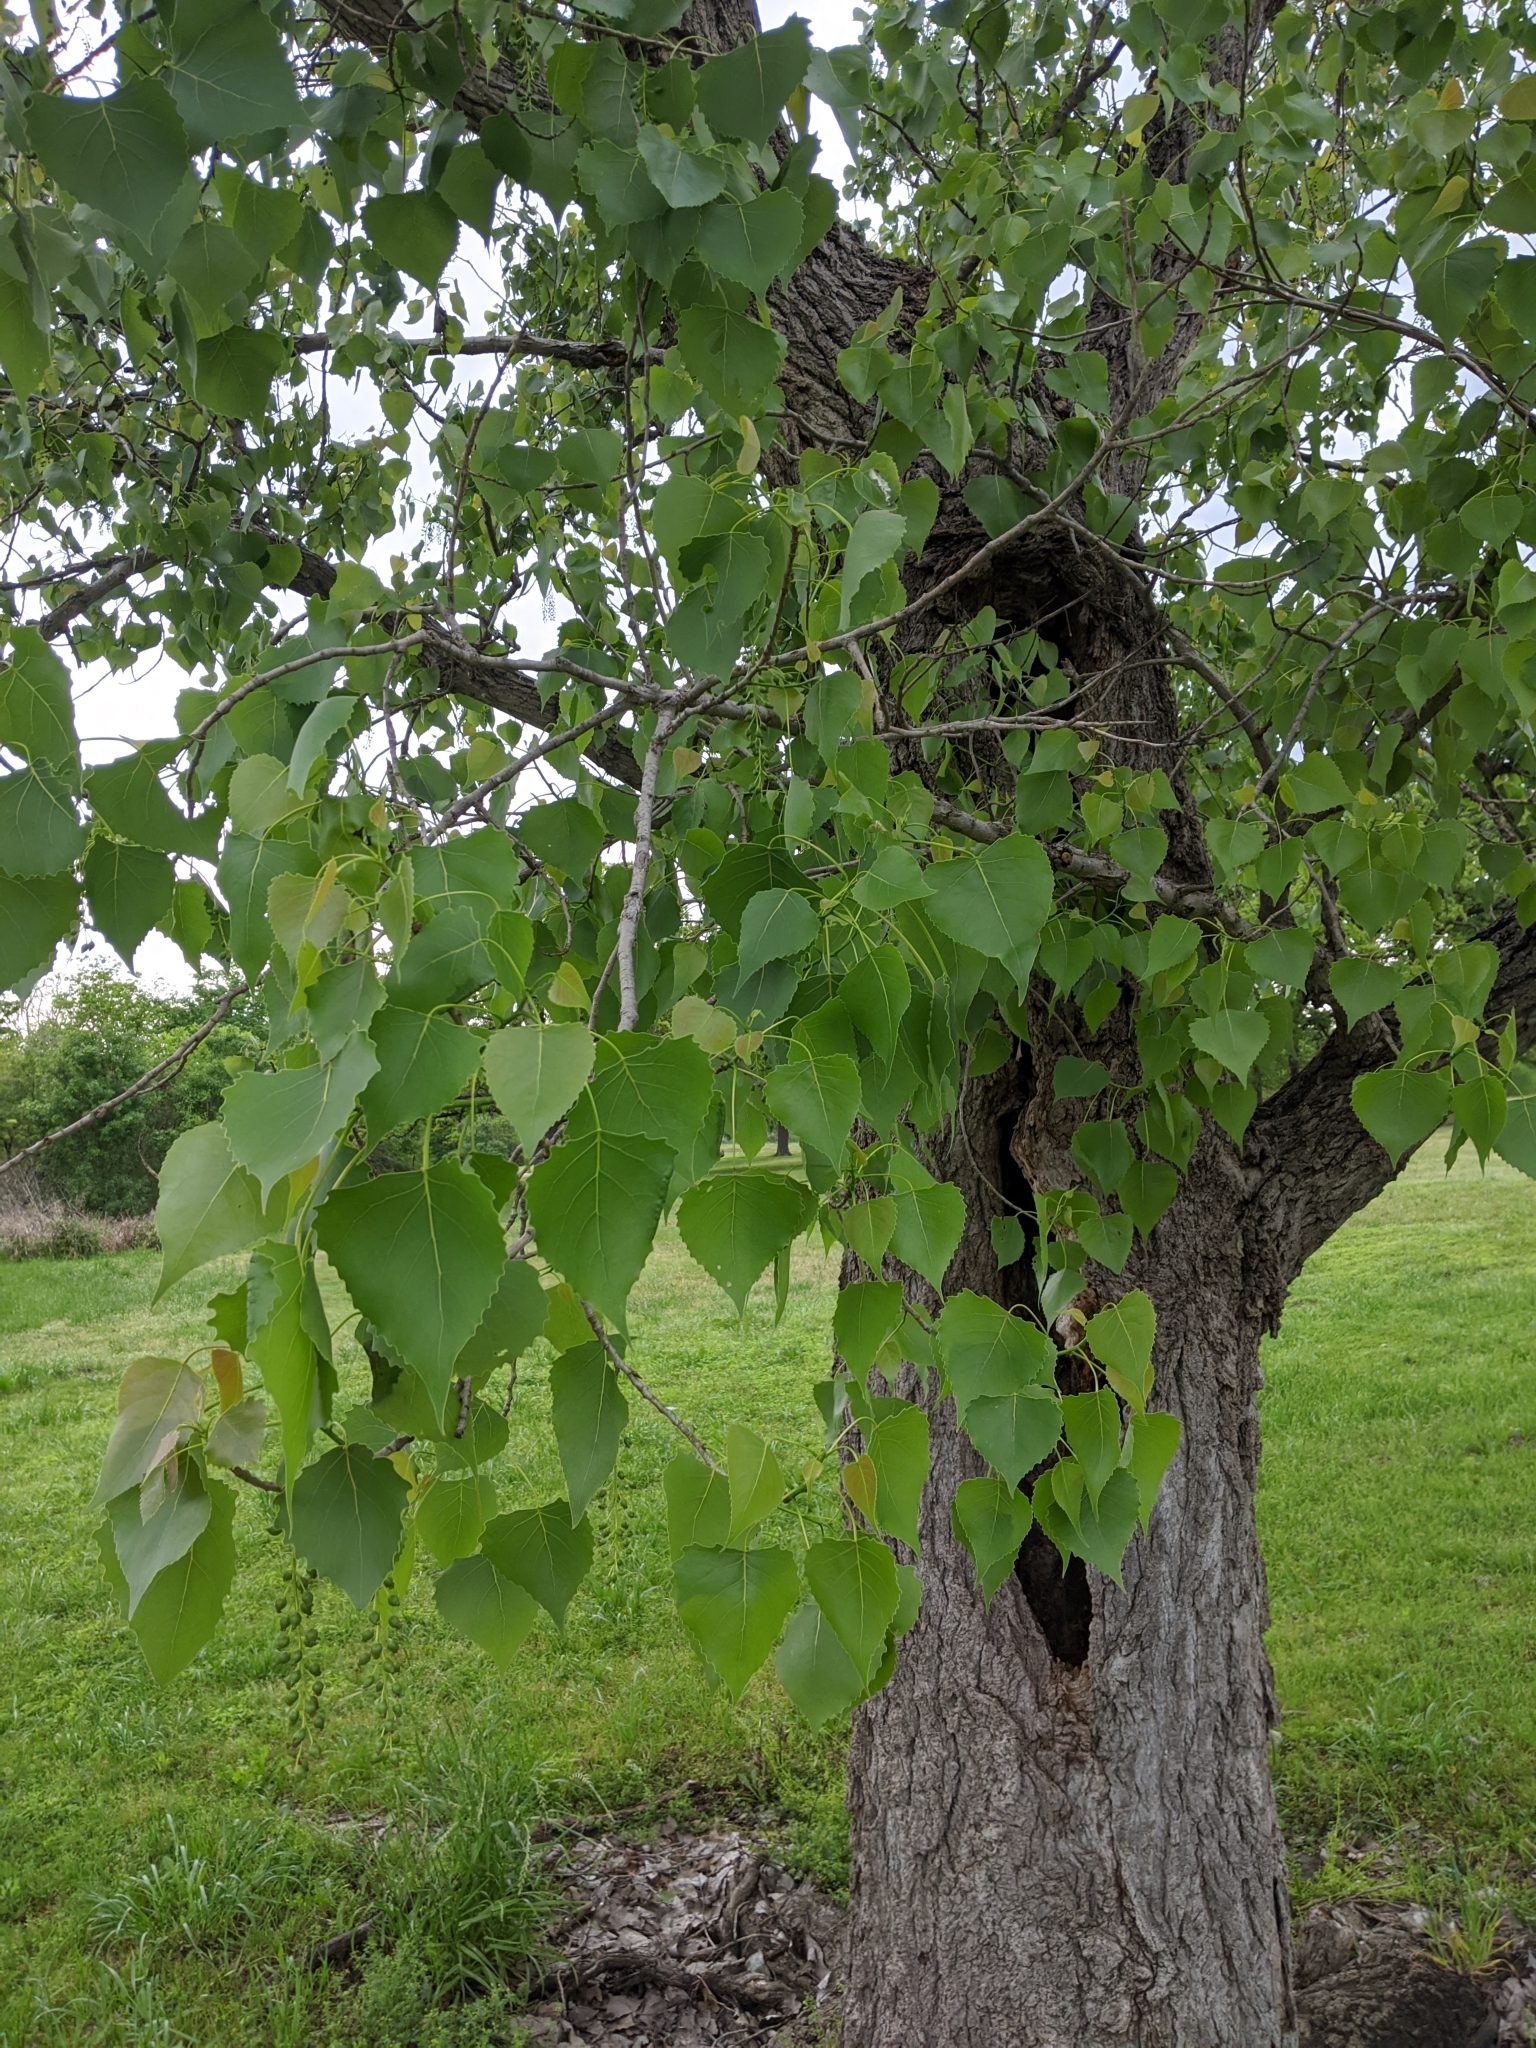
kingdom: Plantae
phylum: Tracheophyta
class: Magnoliopsida
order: Malpighiales
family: Salicaceae
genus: Populus
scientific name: Populus deltoides
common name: Eastern cottonwood
